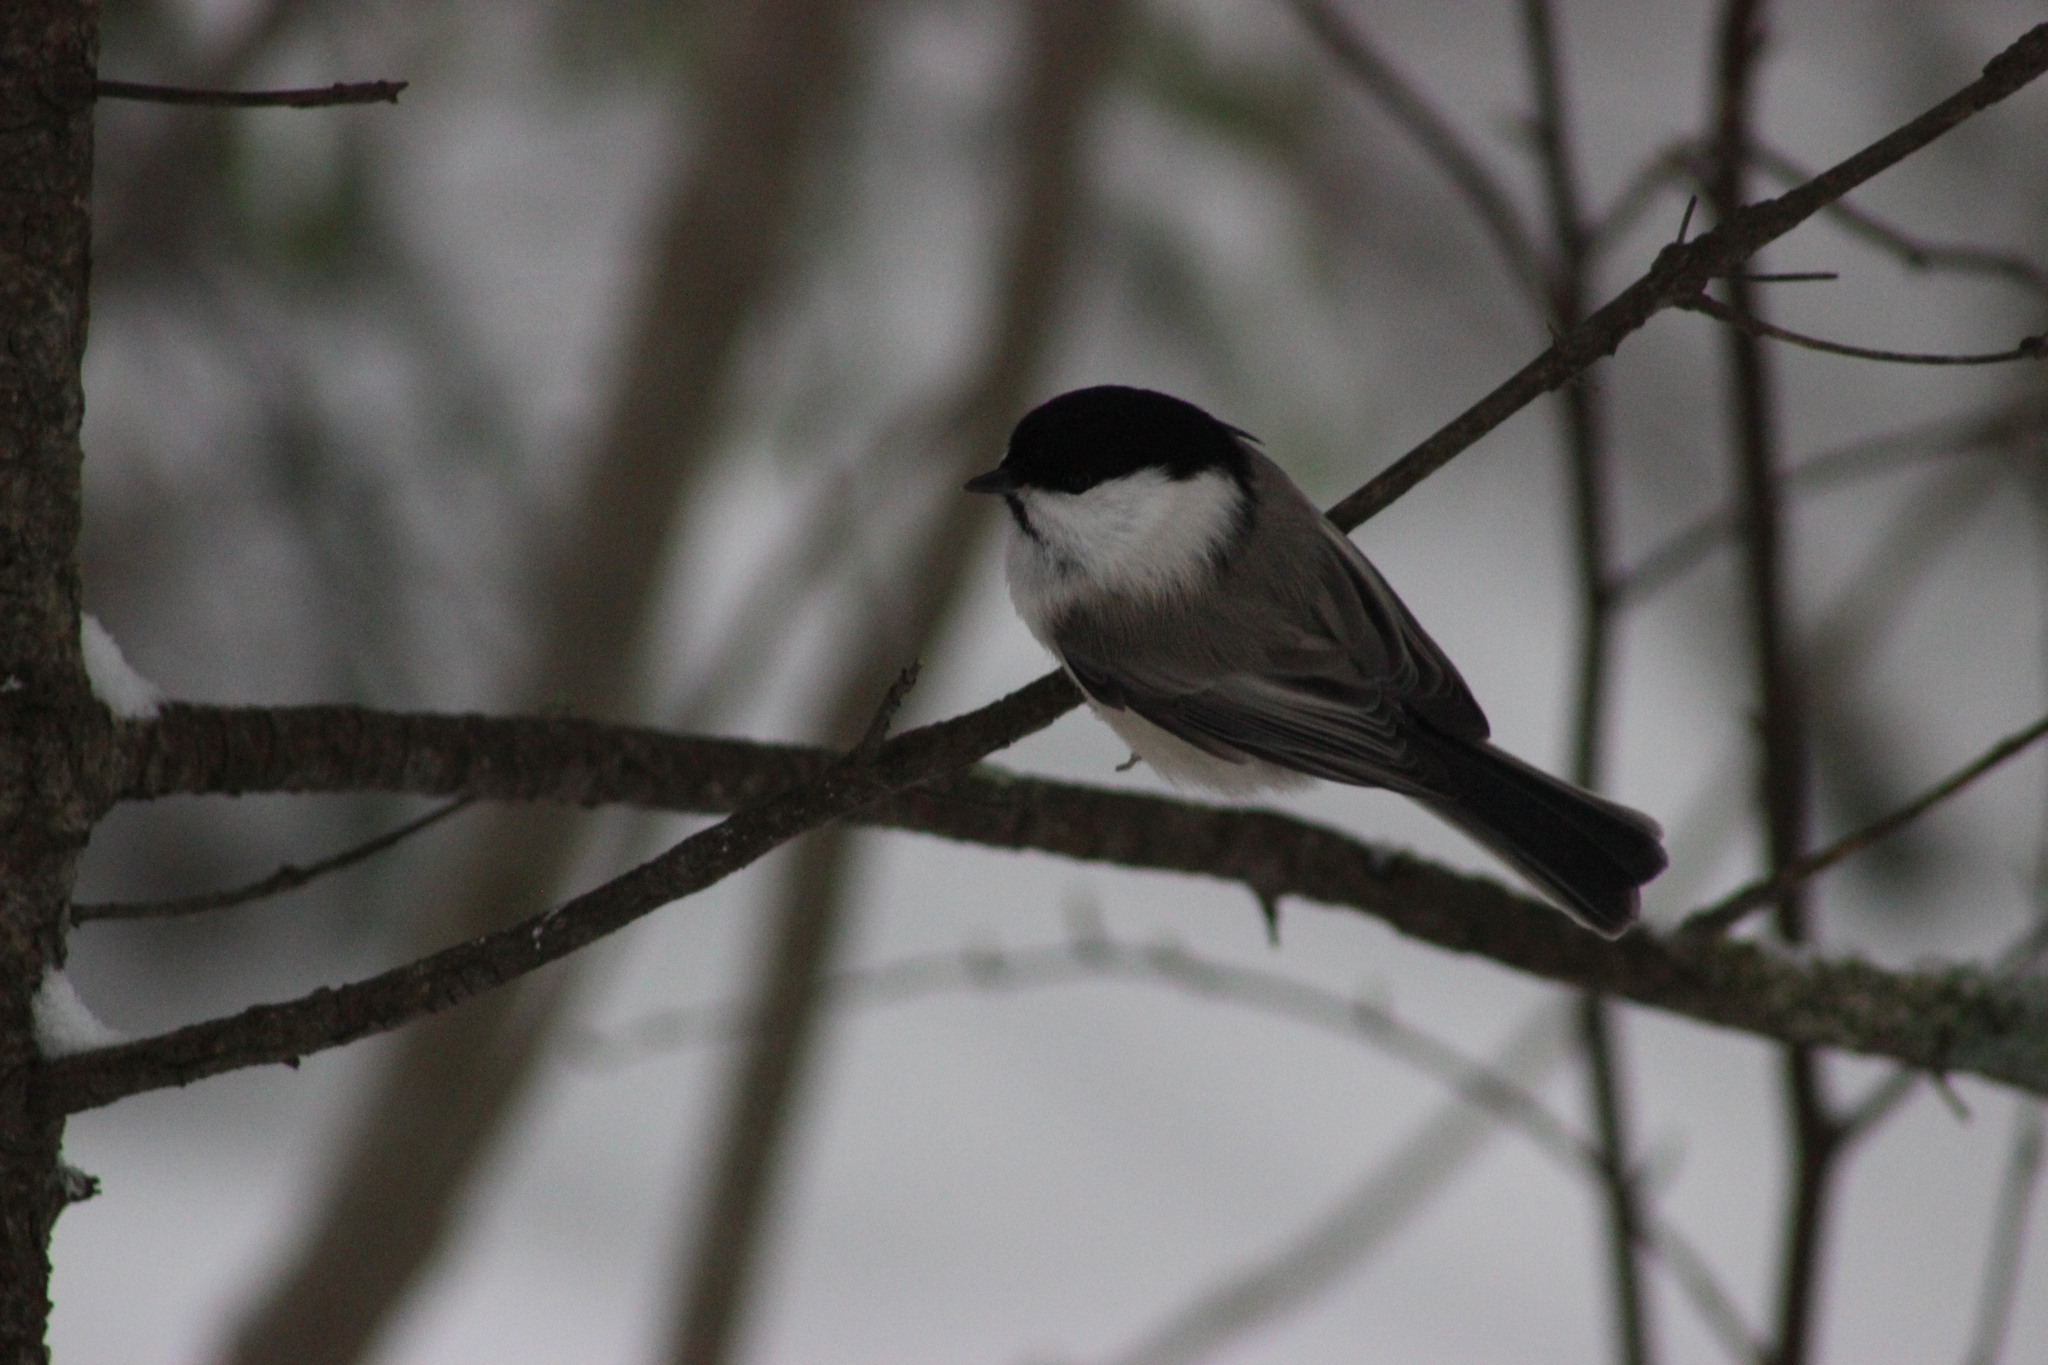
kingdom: Animalia
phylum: Chordata
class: Aves
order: Passeriformes
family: Paridae
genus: Poecile
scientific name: Poecile montanus
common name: Willow tit
